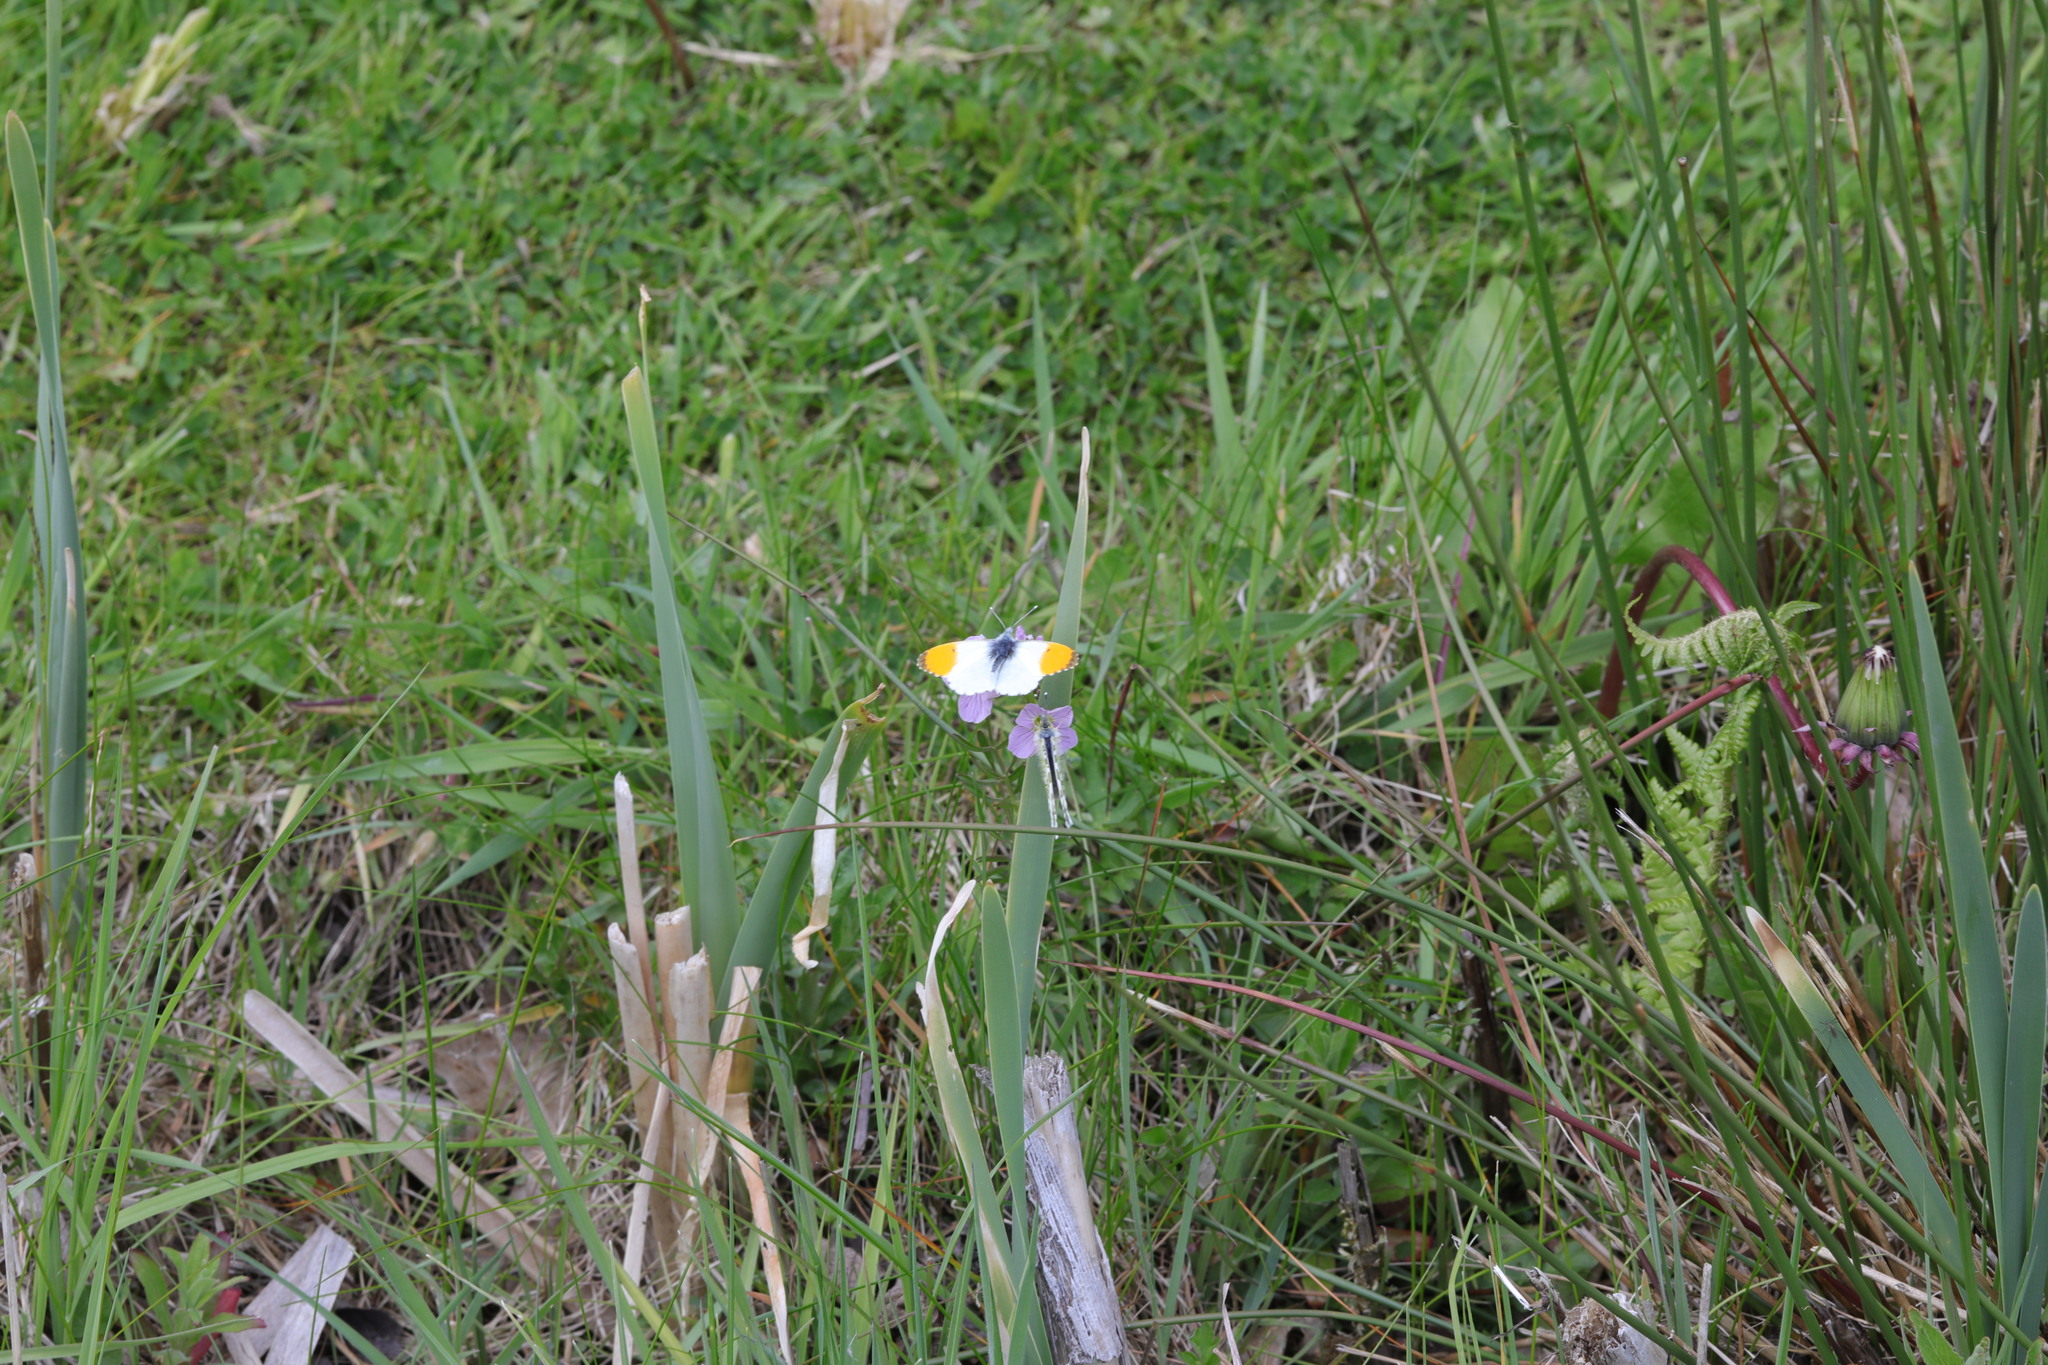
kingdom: Animalia
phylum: Arthropoda
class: Insecta
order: Lepidoptera
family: Pieridae
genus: Anthocharis
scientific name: Anthocharis cardamines
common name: Orange-tip
